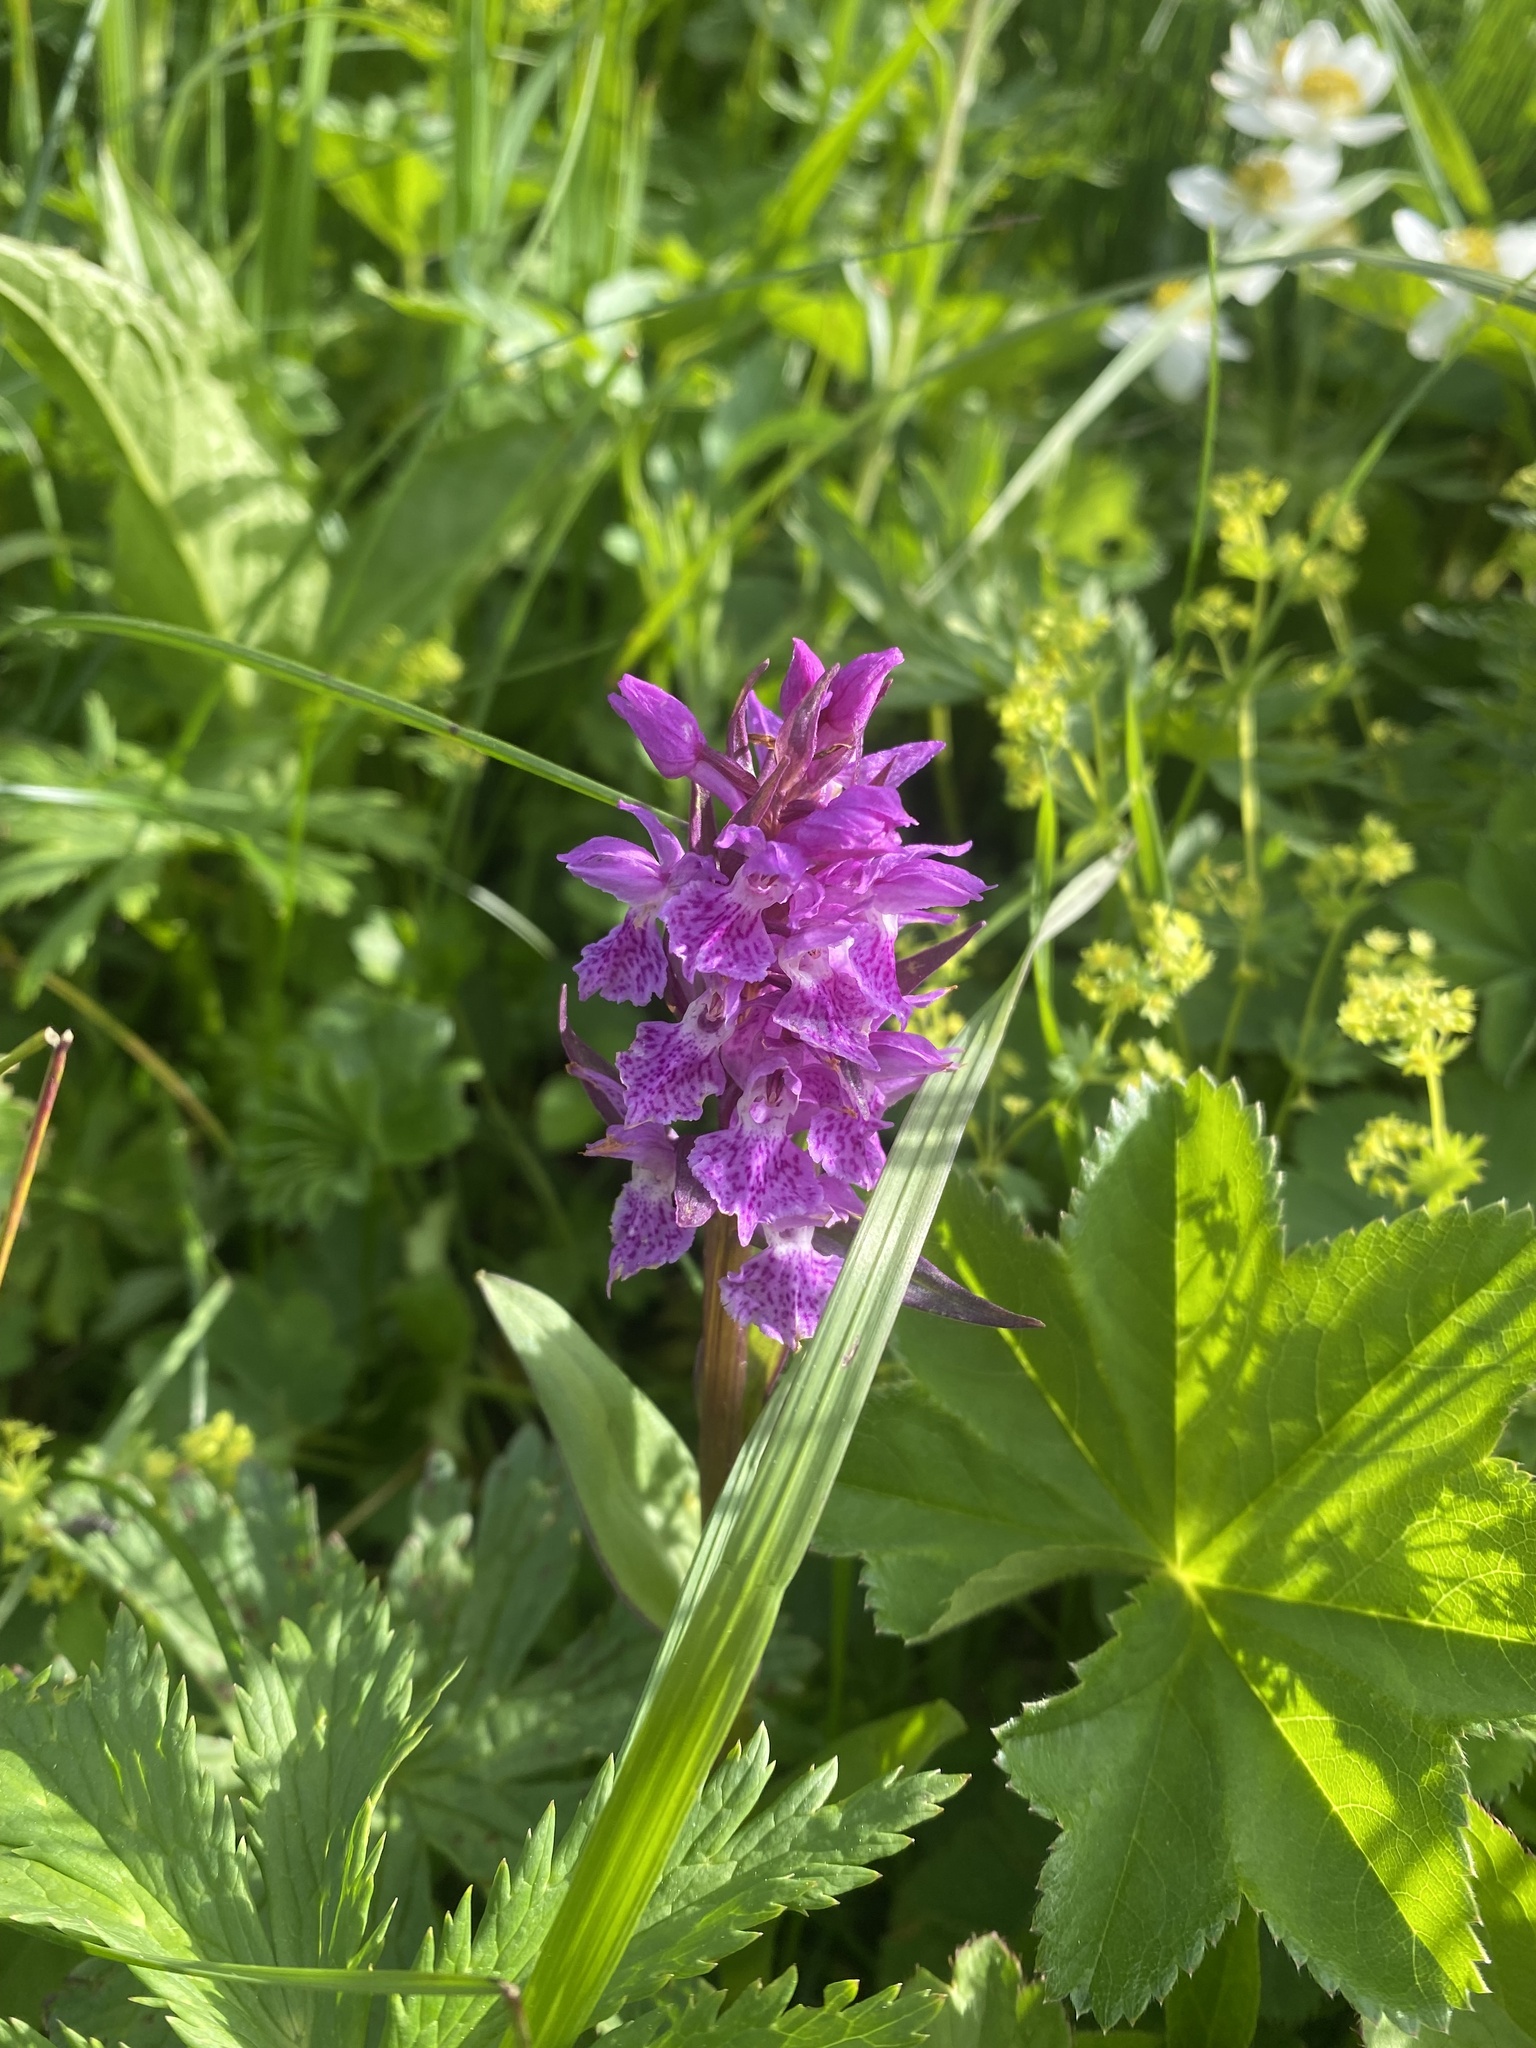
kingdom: Plantae
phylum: Tracheophyta
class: Liliopsida
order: Asparagales
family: Orchidaceae
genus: Dactylorhiza
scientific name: Dactylorhiza euxina
